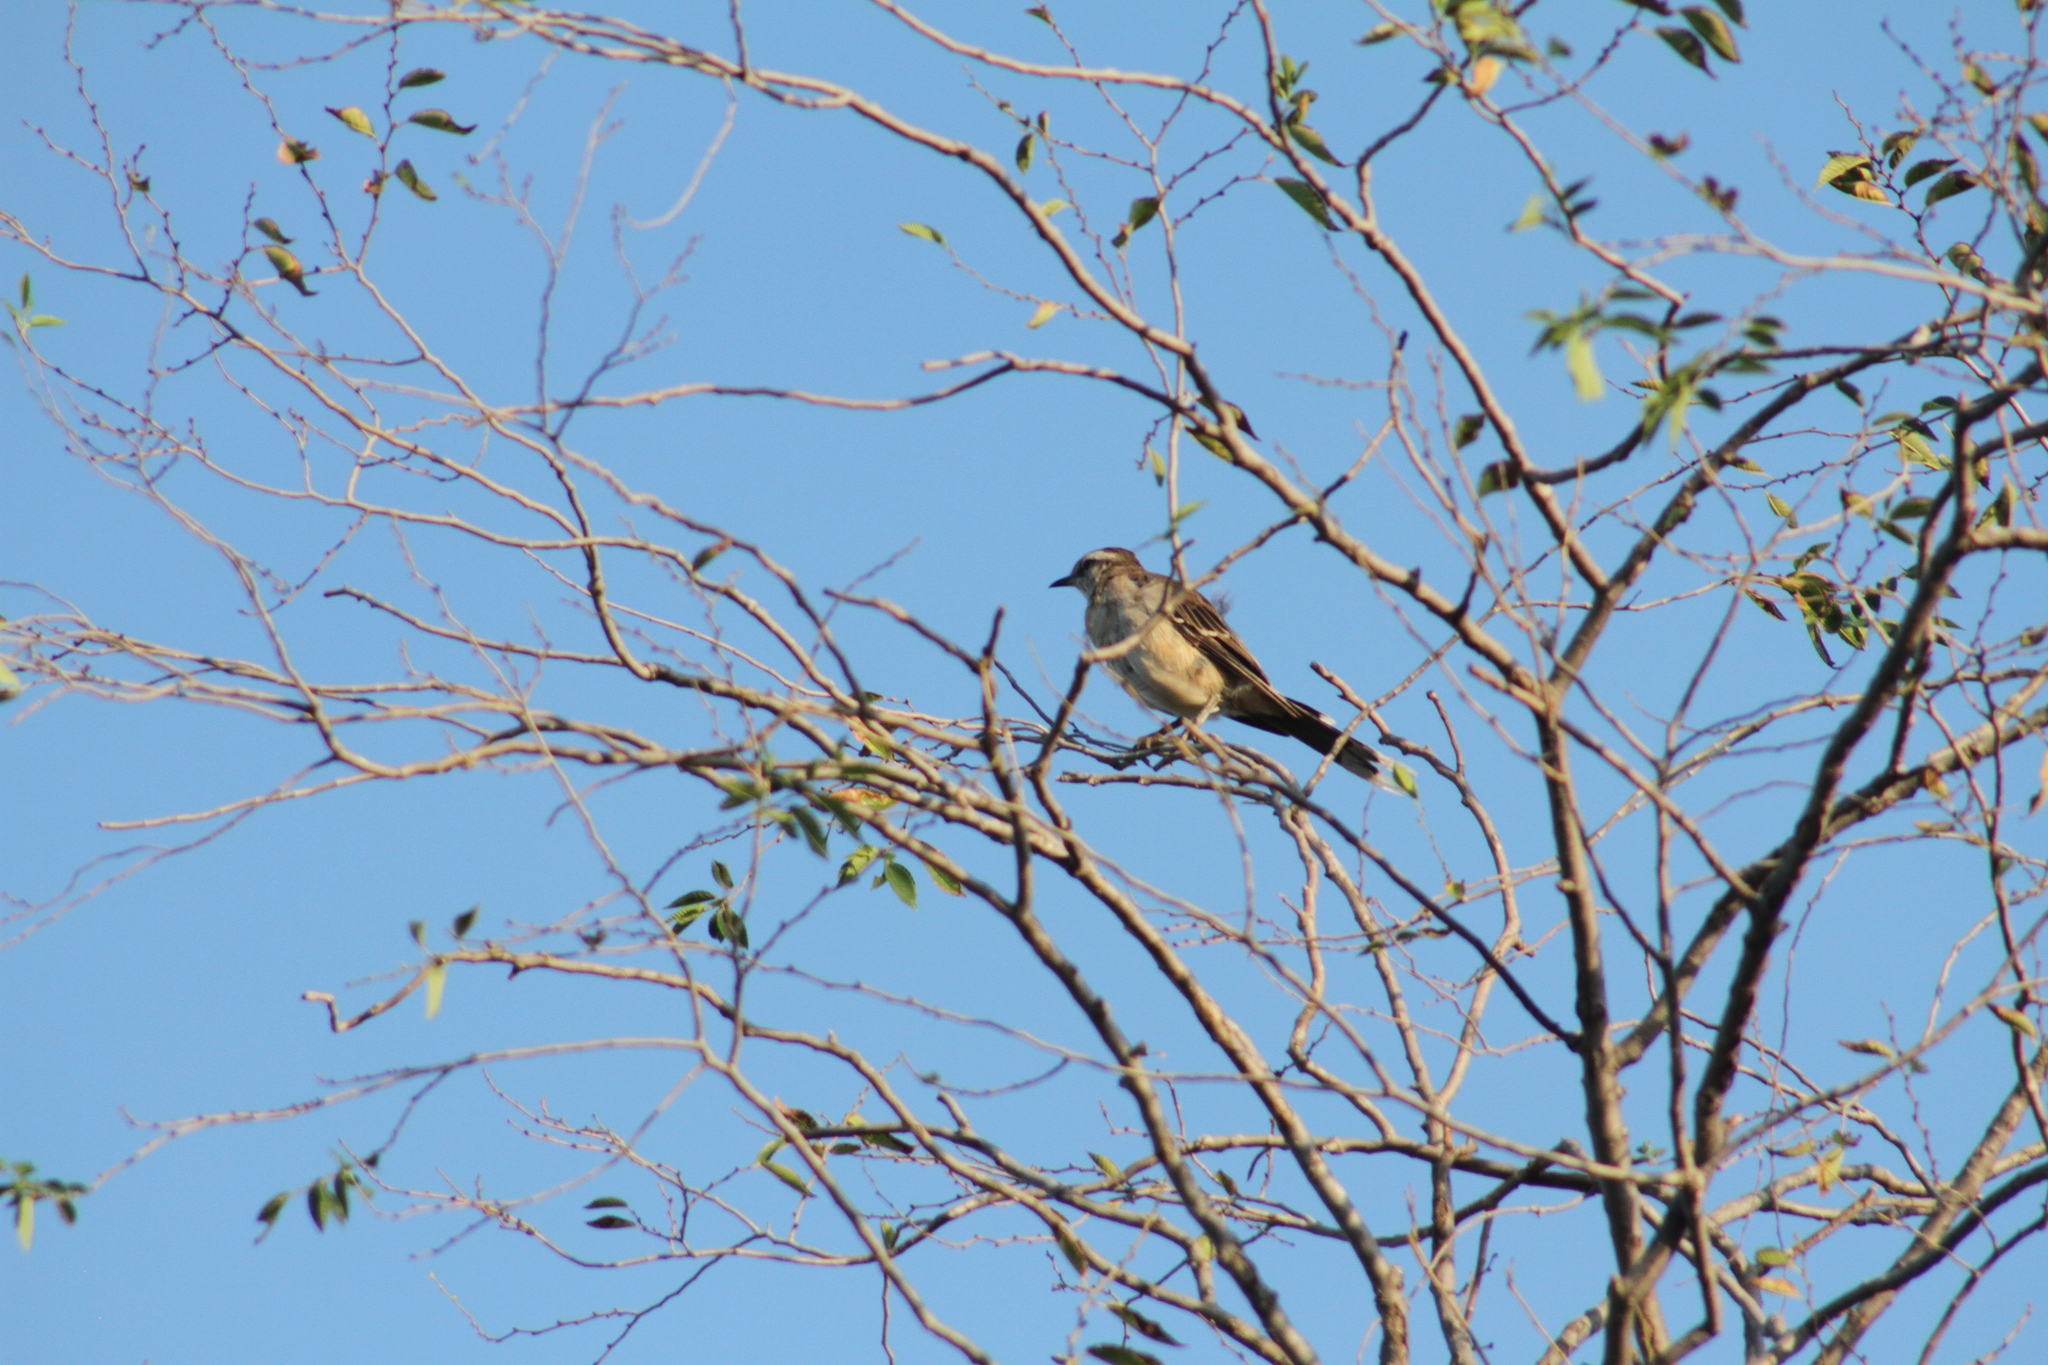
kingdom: Animalia
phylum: Chordata
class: Aves
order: Passeriformes
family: Mimidae
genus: Mimus
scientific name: Mimus saturninus
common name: Chalk-browed mockingbird
